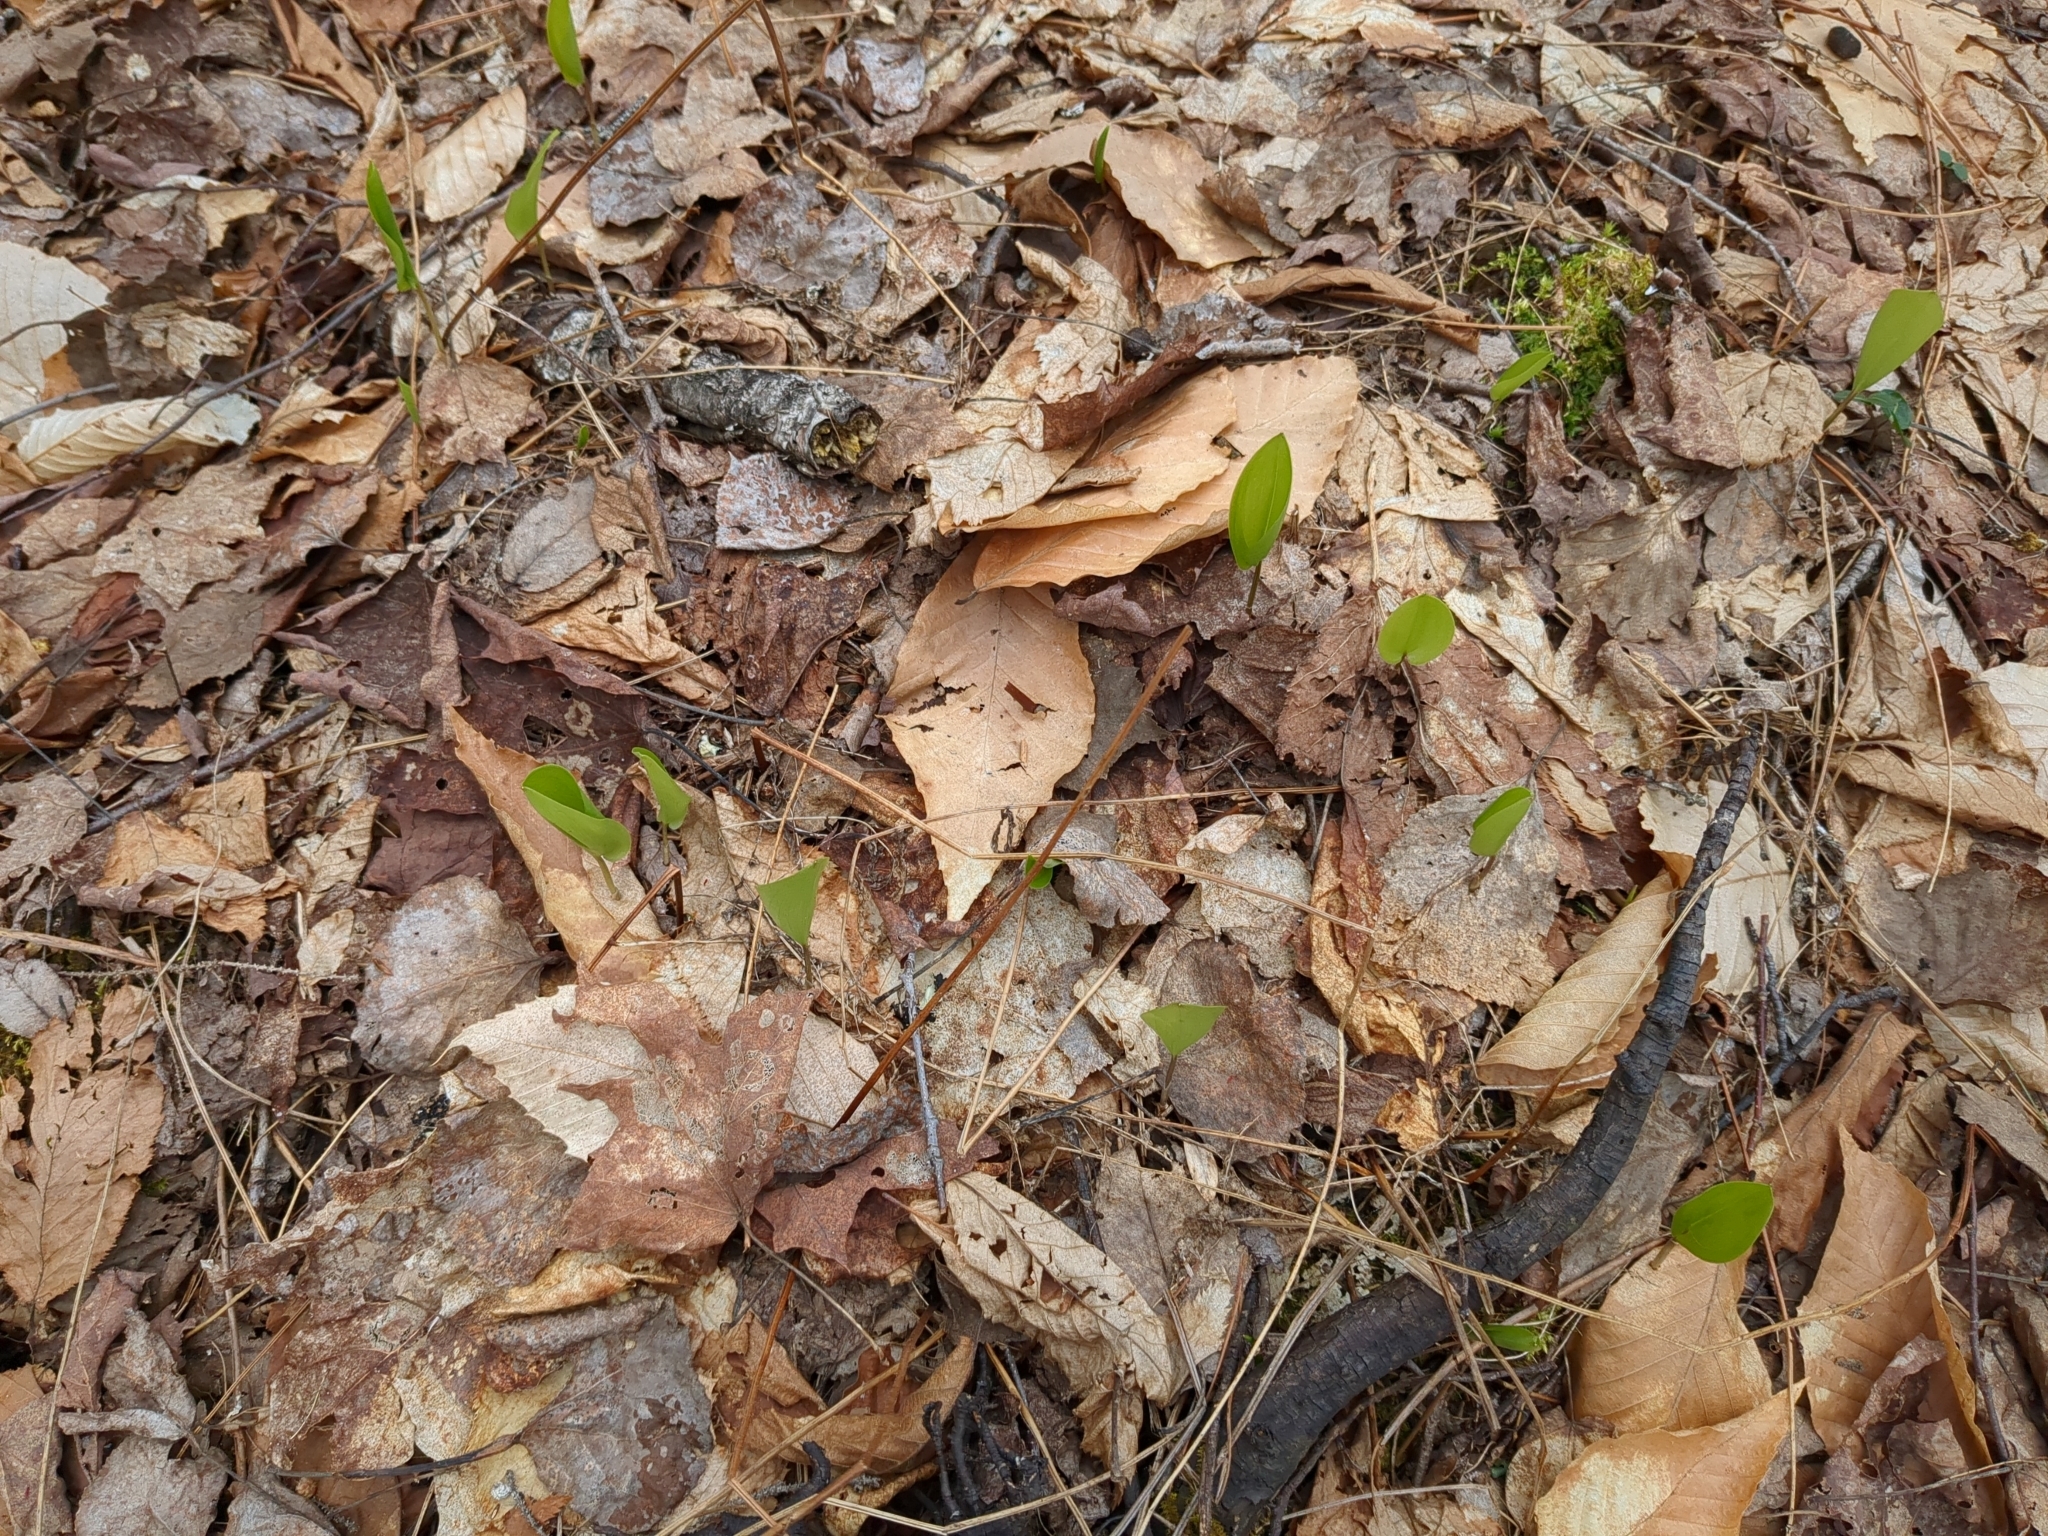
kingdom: Plantae
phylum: Tracheophyta
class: Liliopsida
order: Asparagales
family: Asparagaceae
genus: Maianthemum
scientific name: Maianthemum canadense
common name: False lily-of-the-valley
